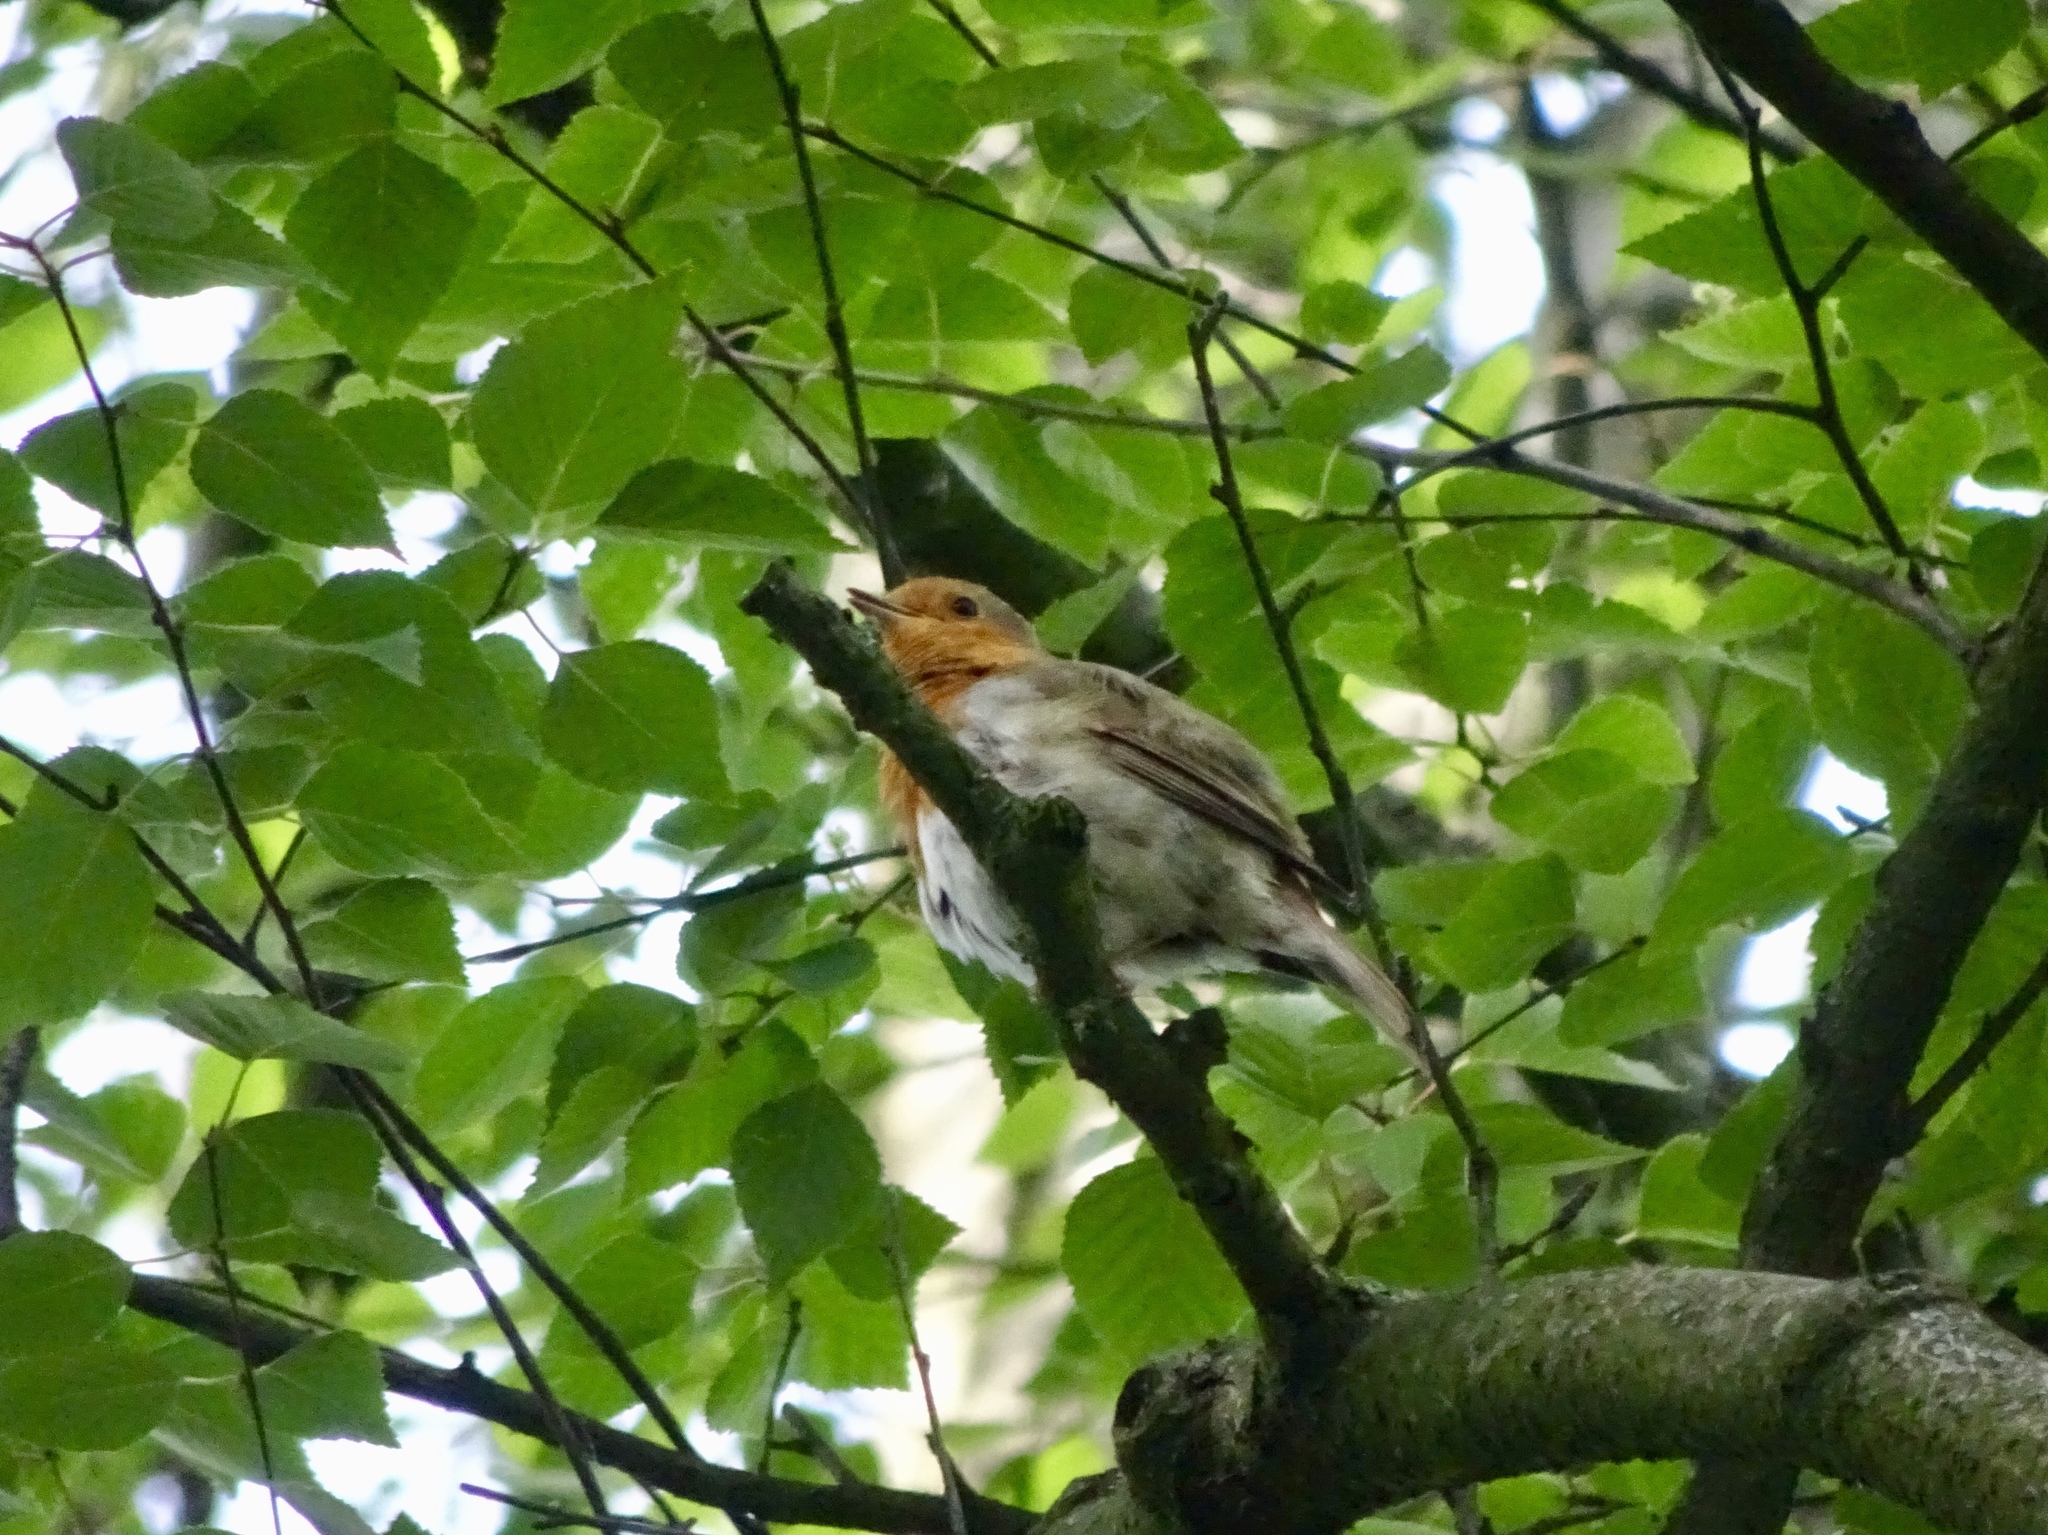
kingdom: Animalia
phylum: Chordata
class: Aves
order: Passeriformes
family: Muscicapidae
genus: Erithacus
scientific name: Erithacus rubecula
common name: European robin
